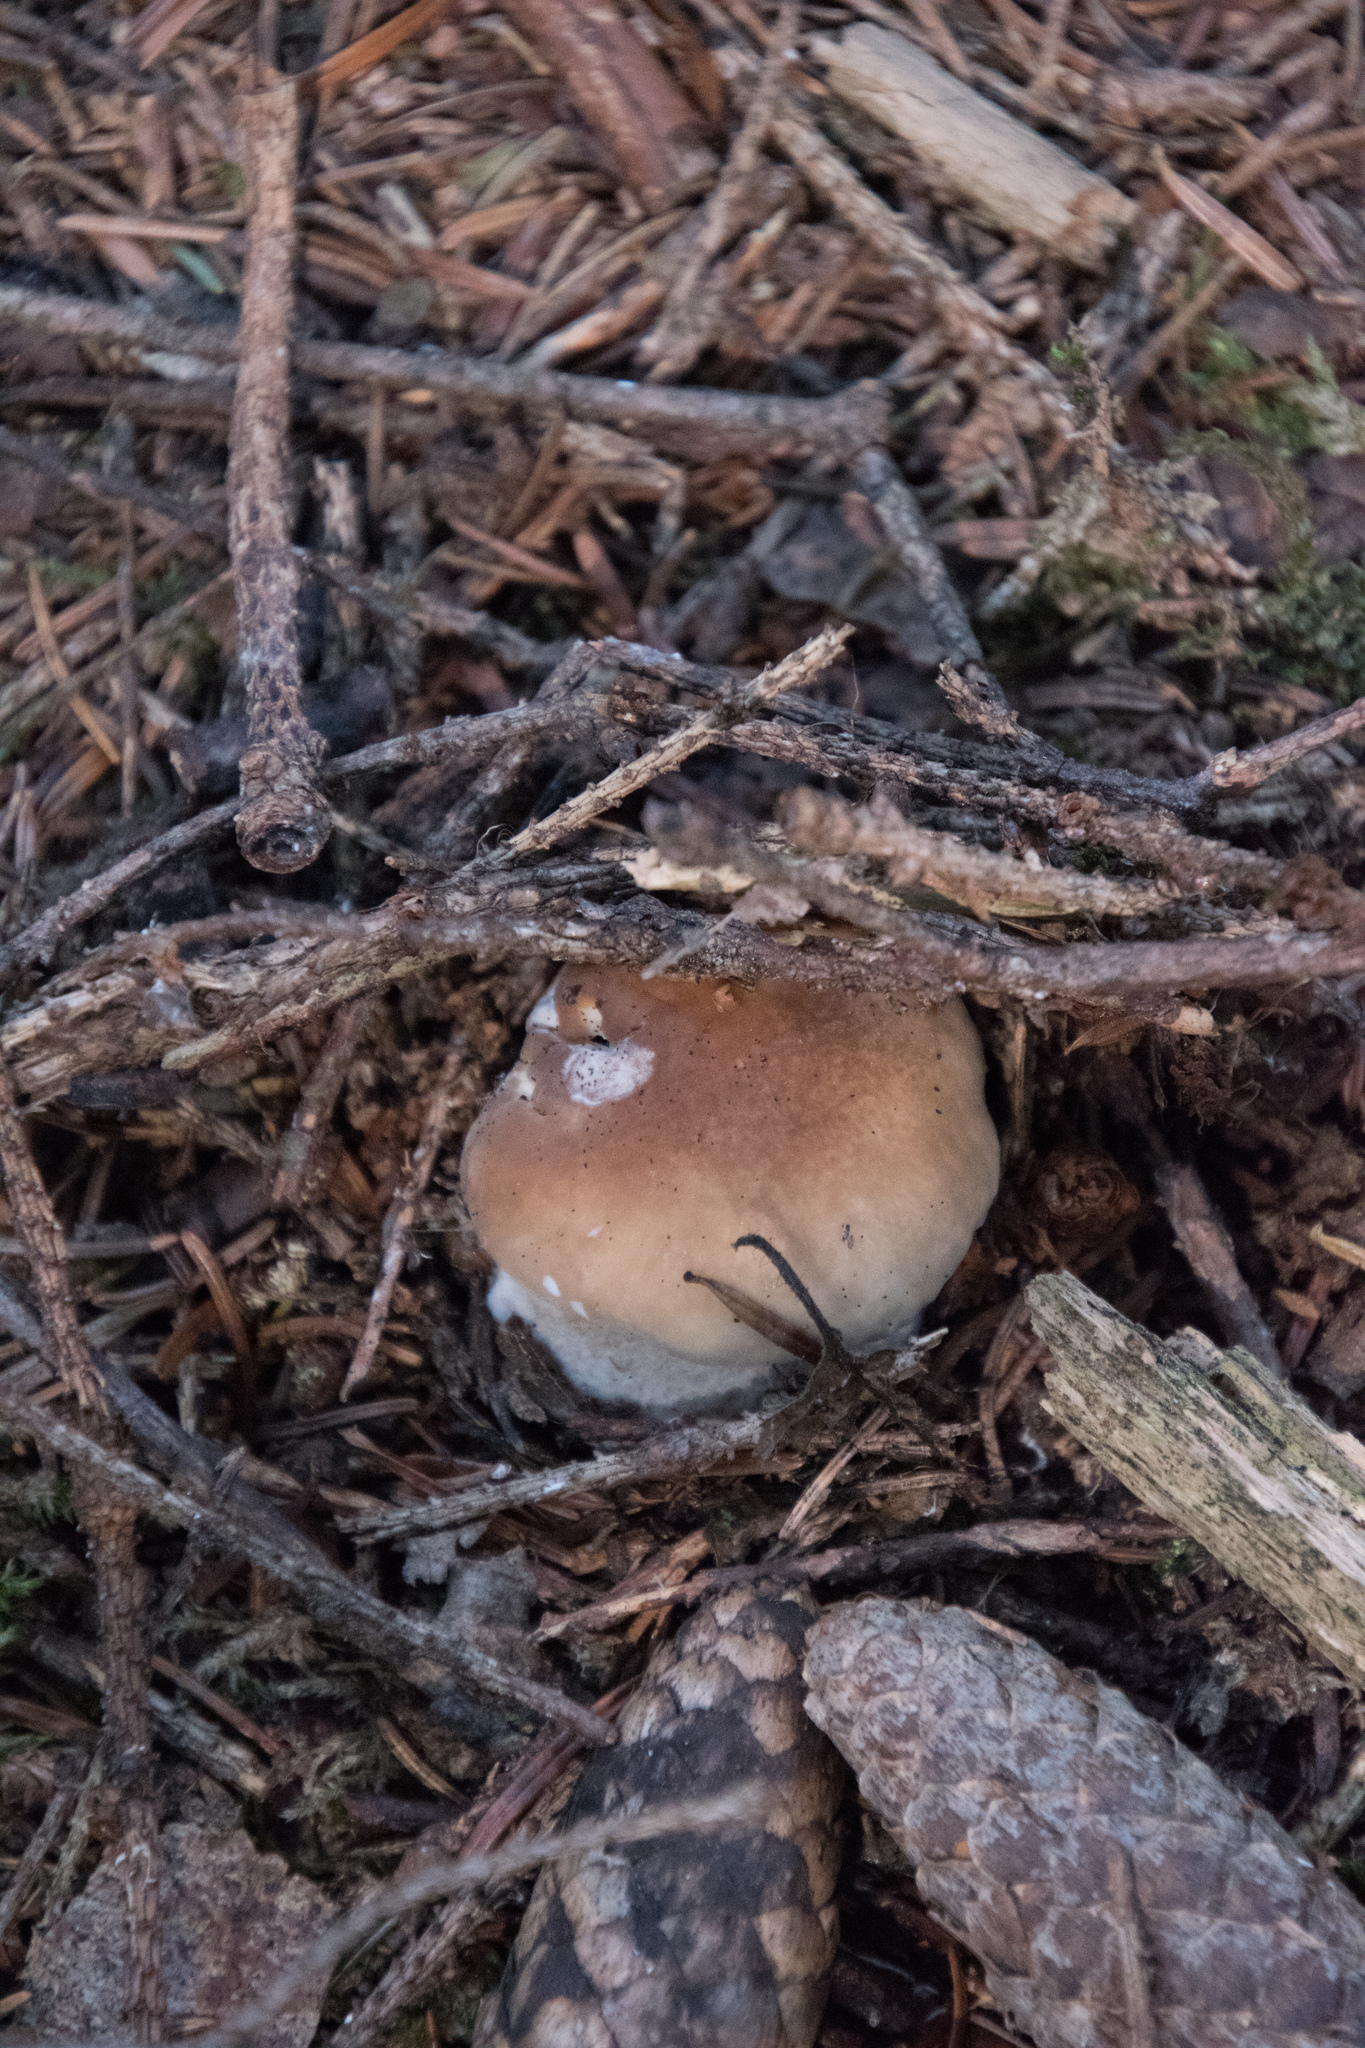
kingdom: Fungi
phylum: Basidiomycota
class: Agaricomycetes
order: Boletales
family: Boletaceae
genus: Boletus
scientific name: Boletus edulis
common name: Cep
